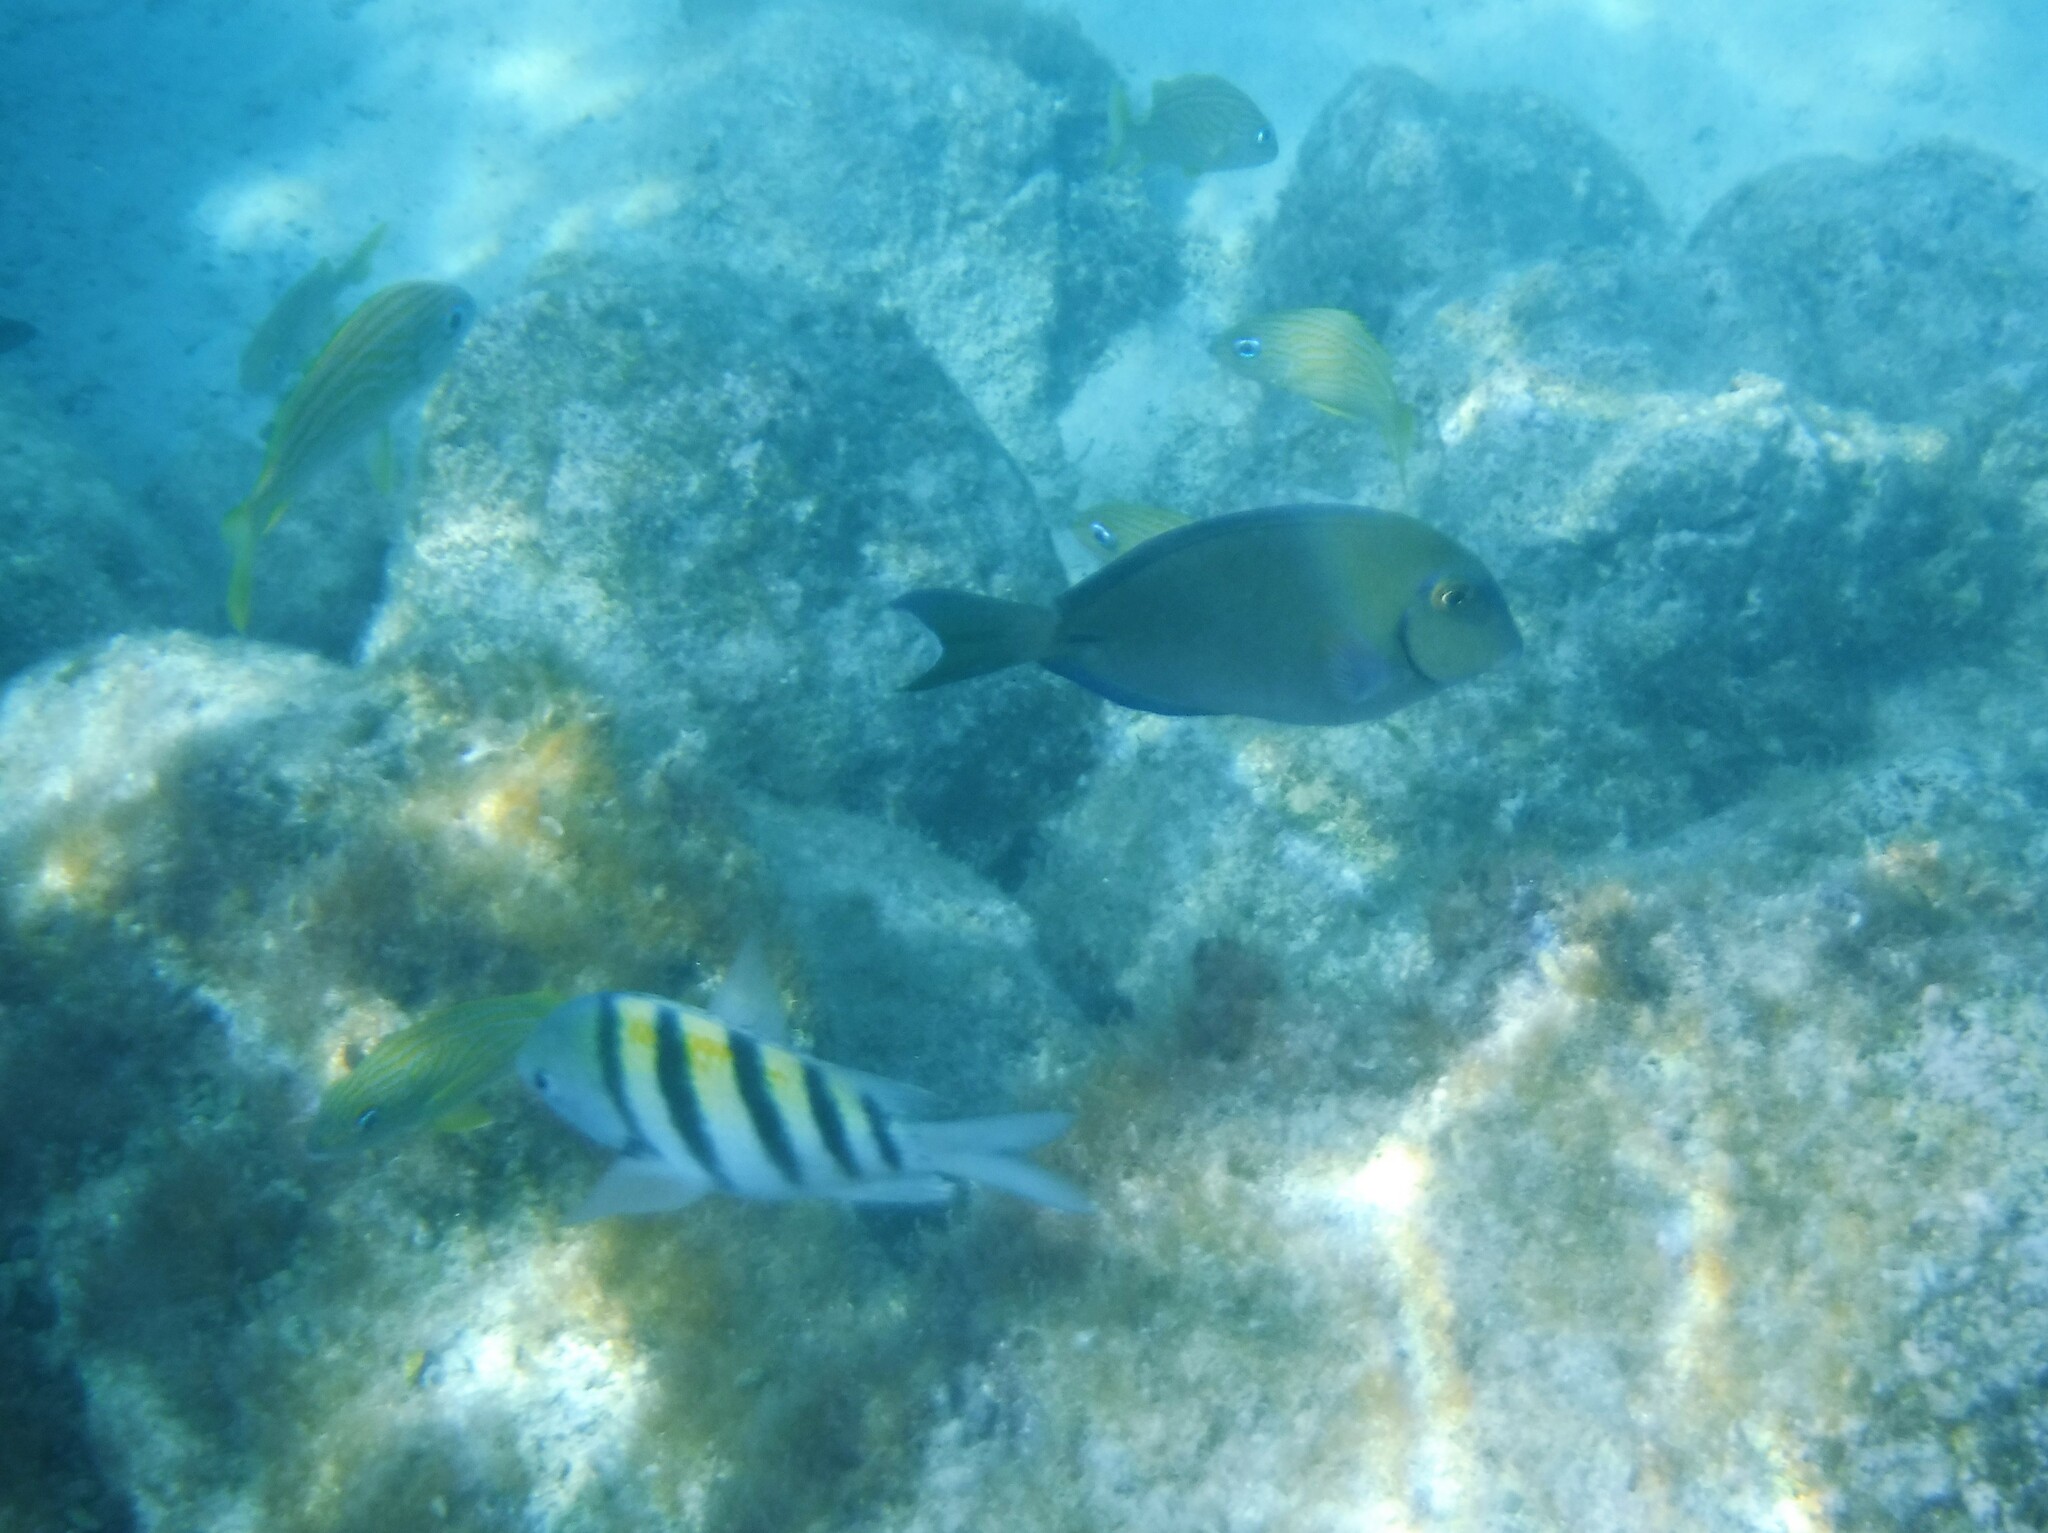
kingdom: Animalia
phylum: Chordata
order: Perciformes
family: Acanthuridae
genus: Acanthurus
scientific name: Acanthurus bahianus
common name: Ocean surgeon
